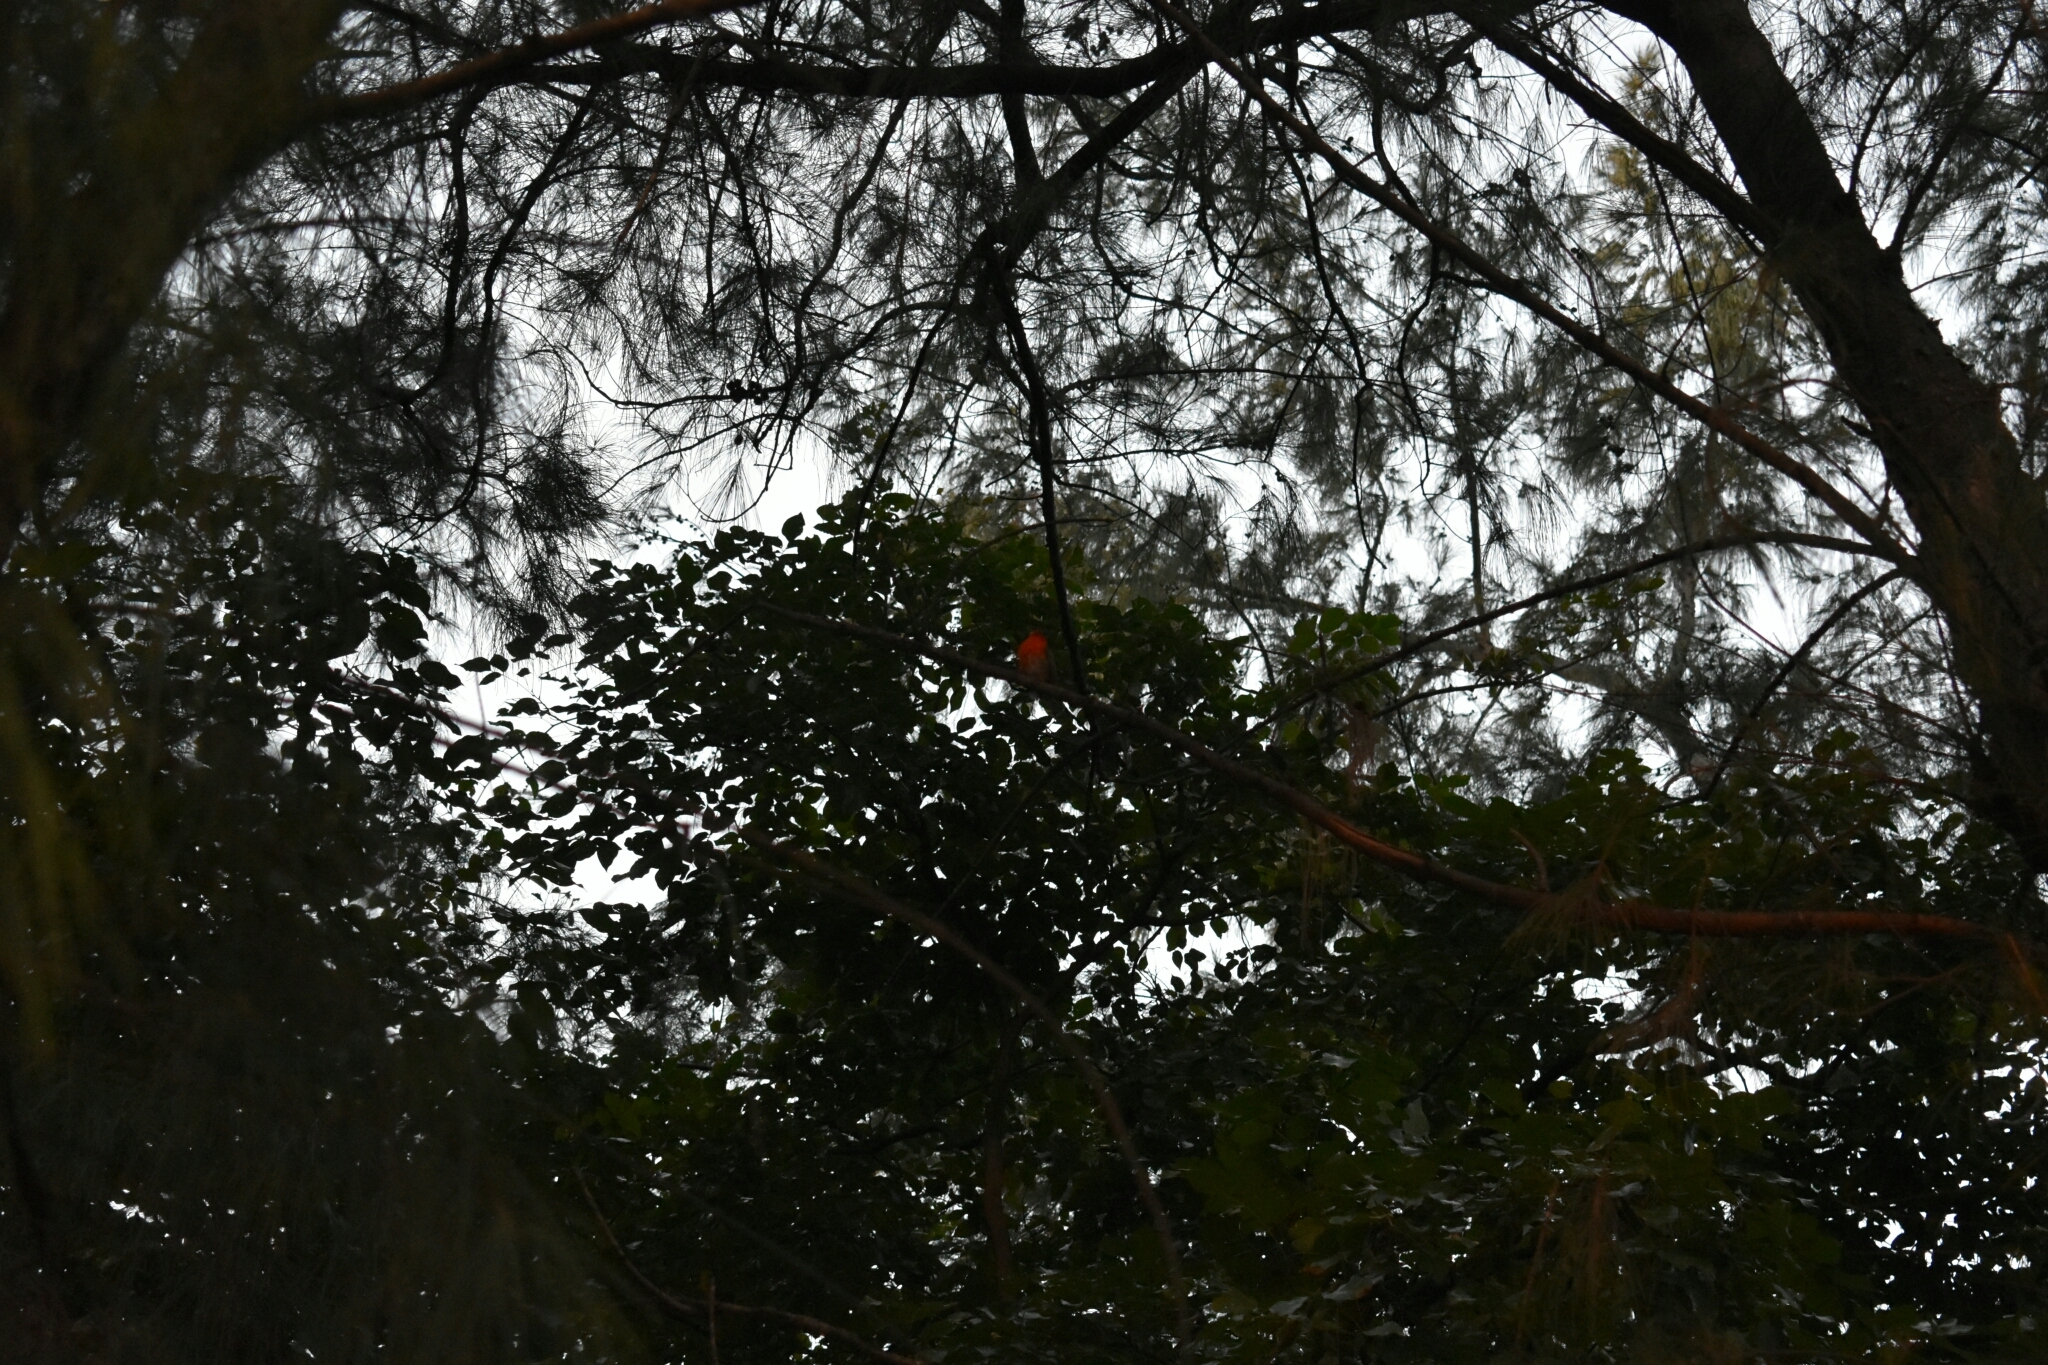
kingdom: Animalia
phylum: Chordata
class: Aves
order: Passeriformes
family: Ploceidae
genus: Foudia
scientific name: Foudia madagascariensis
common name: Red fody
